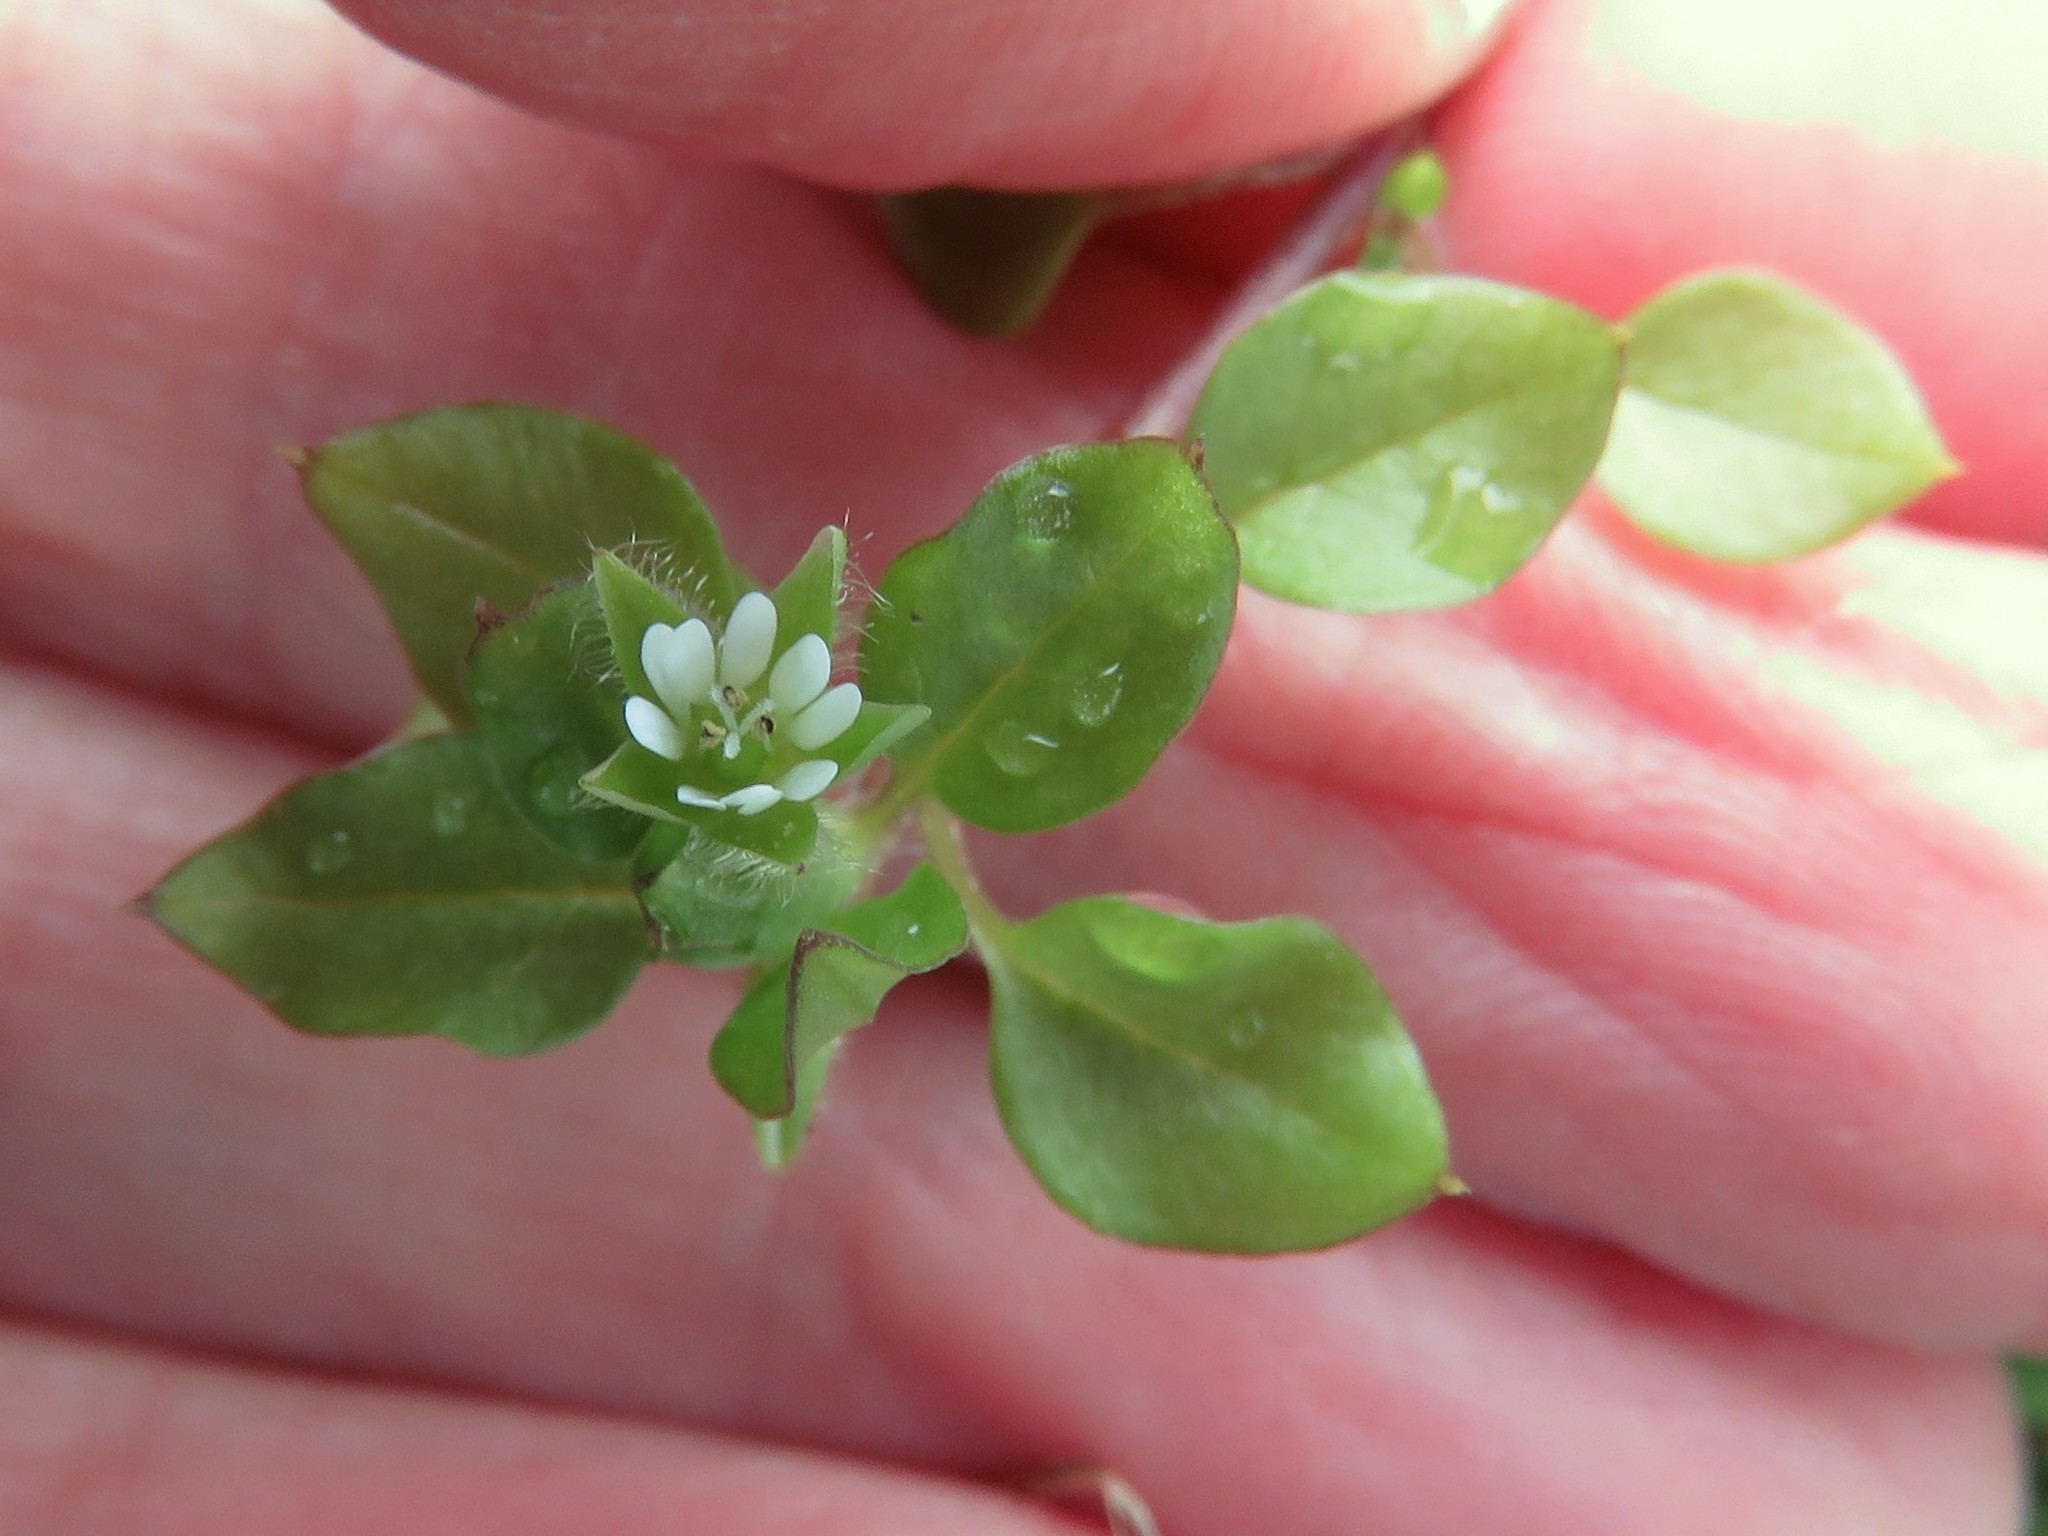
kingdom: Plantae
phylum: Tracheophyta
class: Magnoliopsida
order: Caryophyllales
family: Caryophyllaceae
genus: Stellaria
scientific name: Stellaria media
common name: Common chickweed
